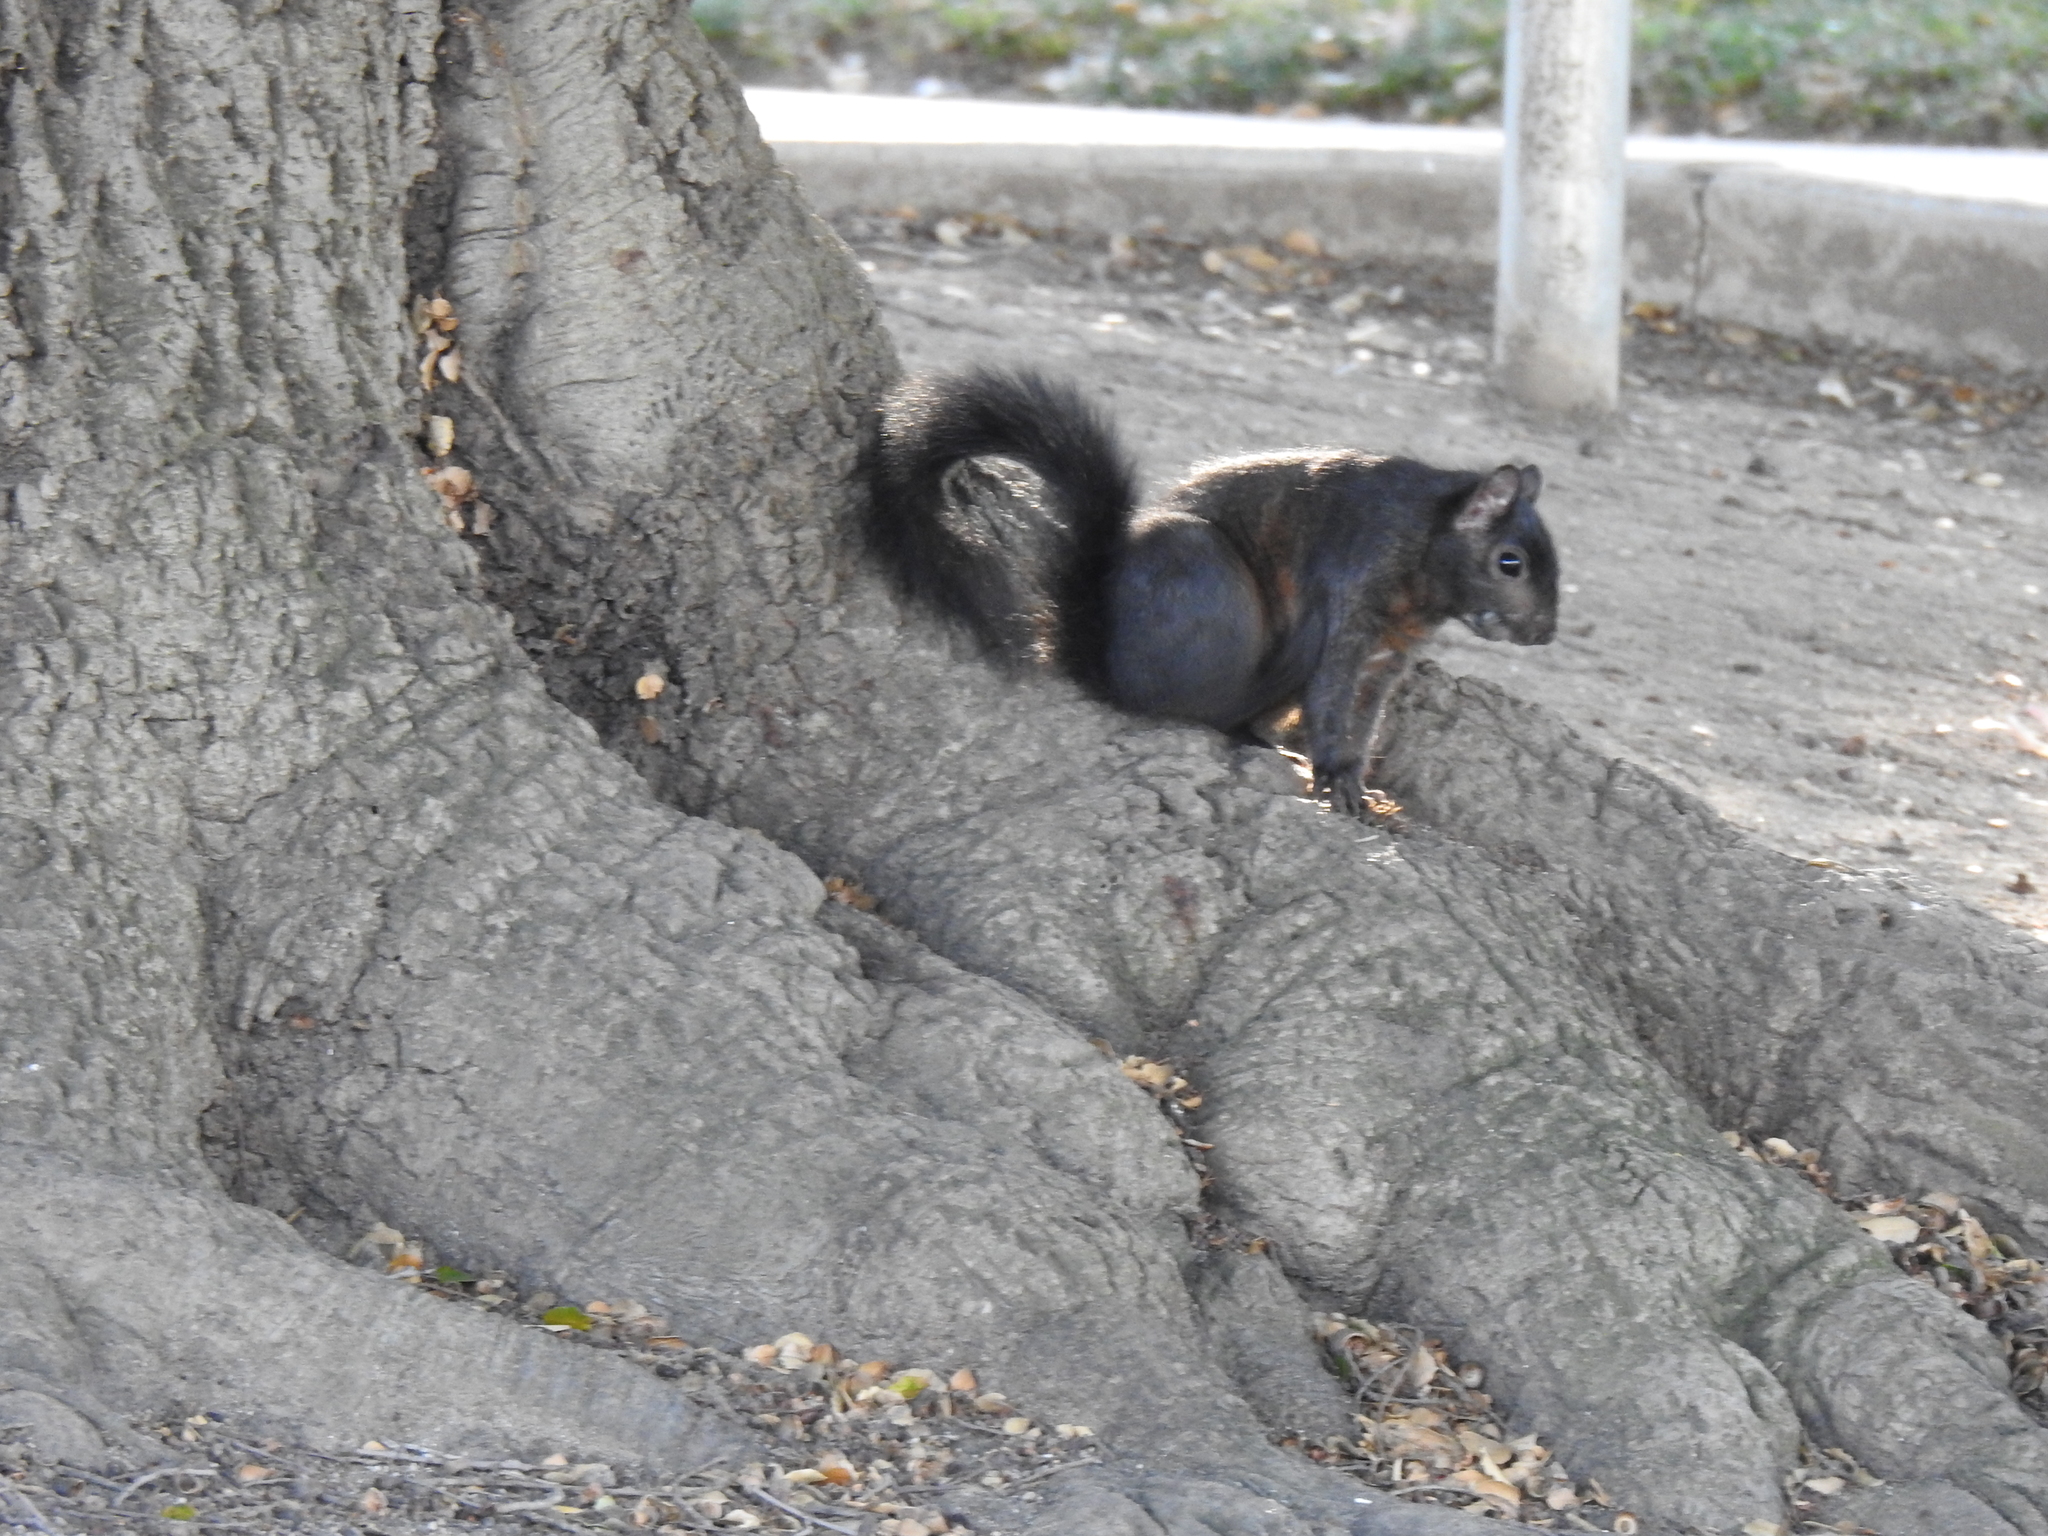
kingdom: Animalia
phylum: Chordata
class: Mammalia
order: Rodentia
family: Sciuridae
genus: Sciurus
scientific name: Sciurus carolinensis
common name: Eastern gray squirrel
